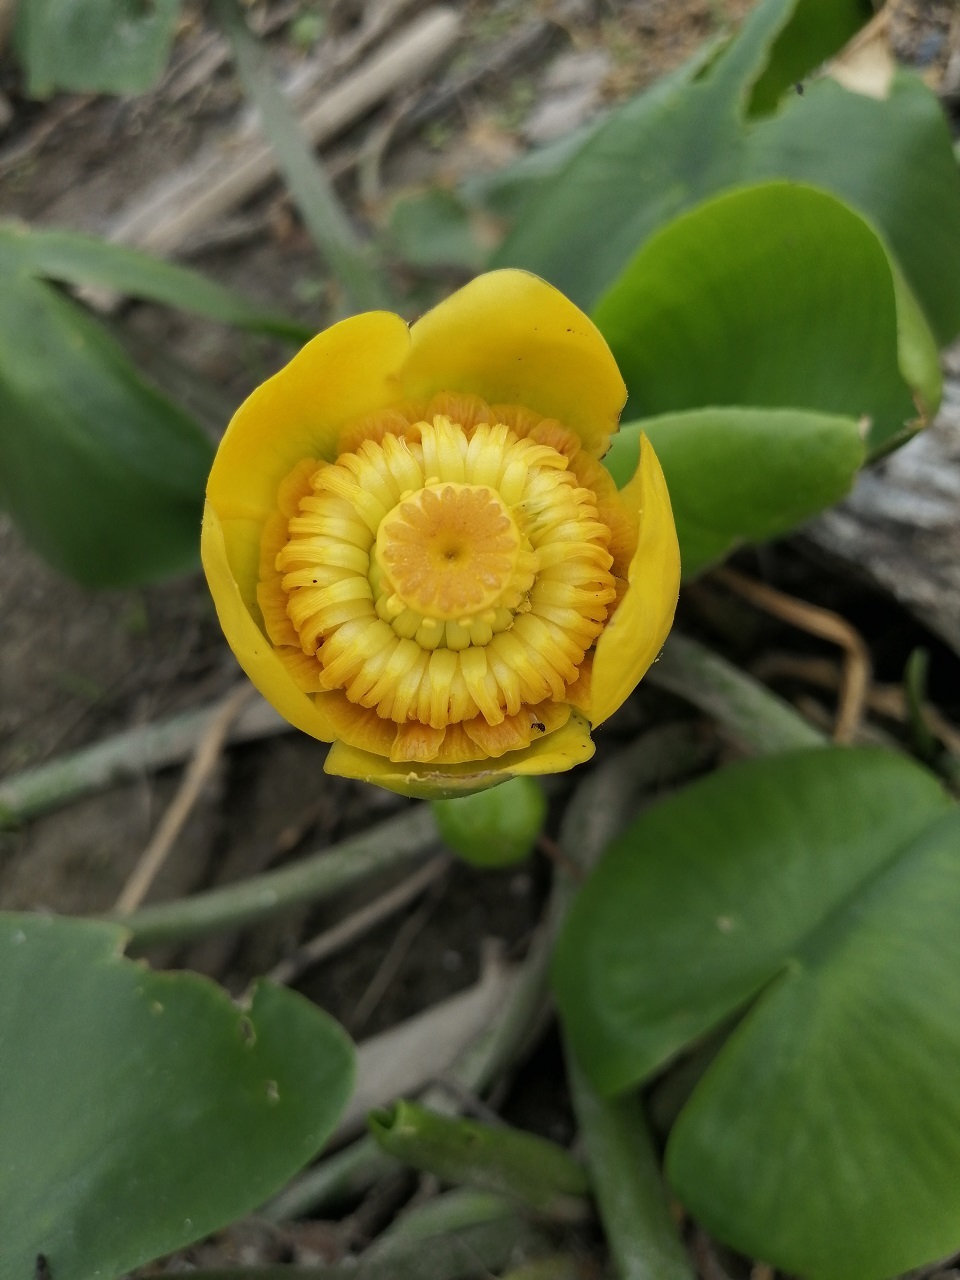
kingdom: Plantae
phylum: Tracheophyta
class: Magnoliopsida
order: Nymphaeales
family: Nymphaeaceae
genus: Nuphar
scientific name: Nuphar lutea
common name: Yellow water-lily
